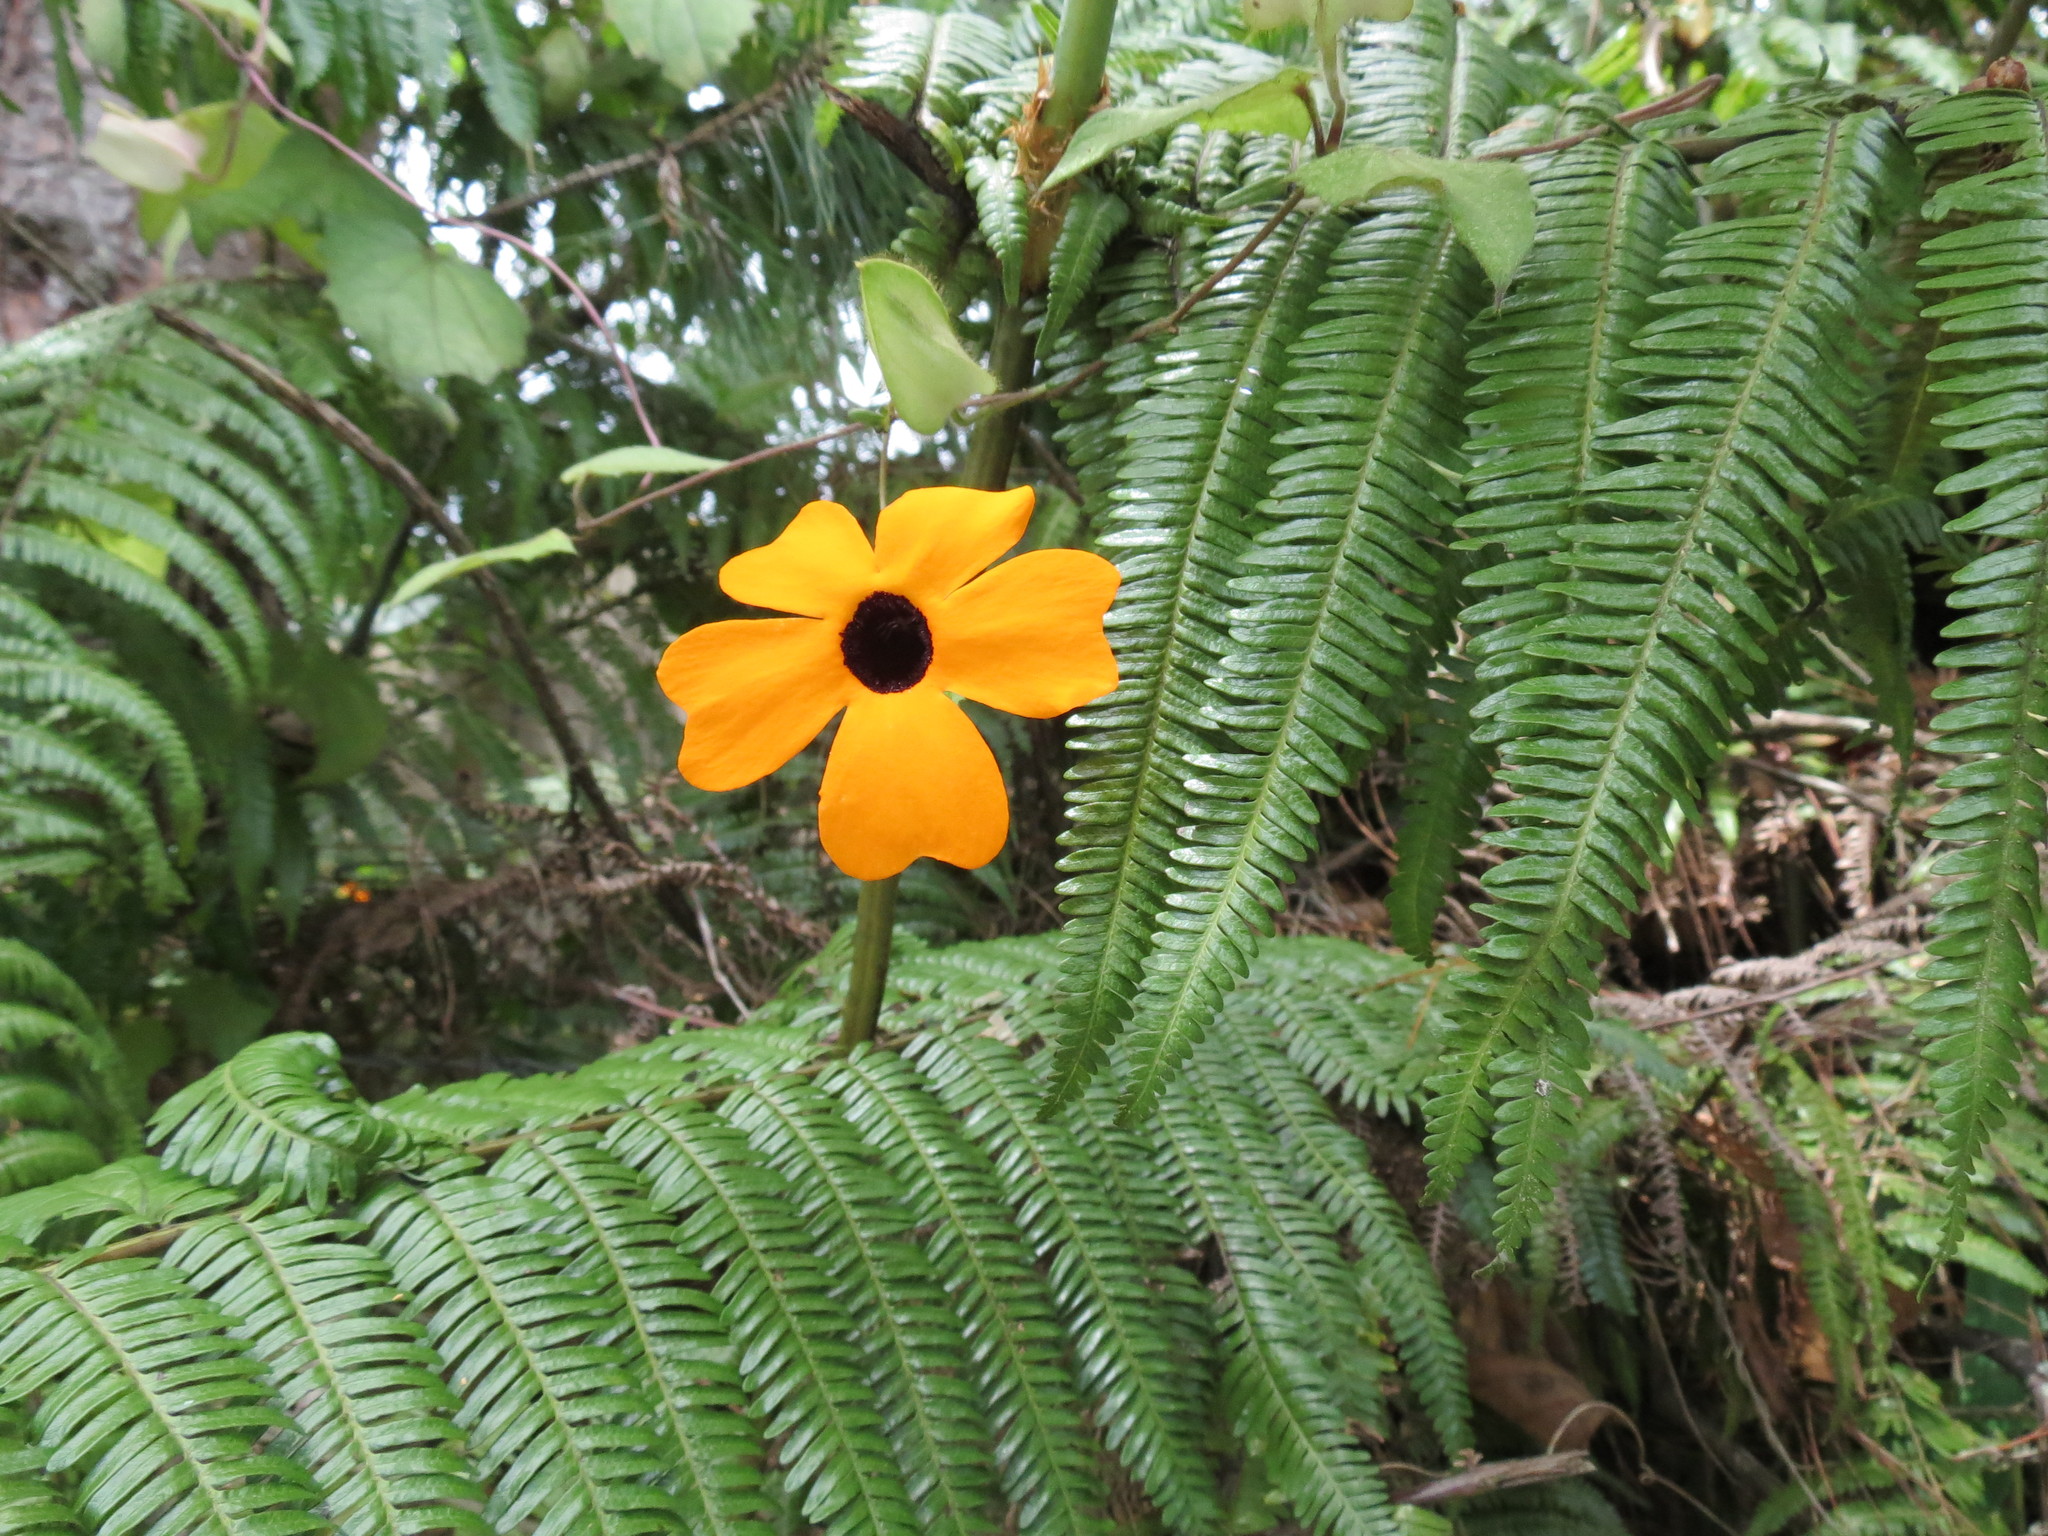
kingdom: Plantae
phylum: Tracheophyta
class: Magnoliopsida
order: Lamiales
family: Acanthaceae
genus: Thunbergia
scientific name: Thunbergia alata
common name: Blackeyed susan vine
